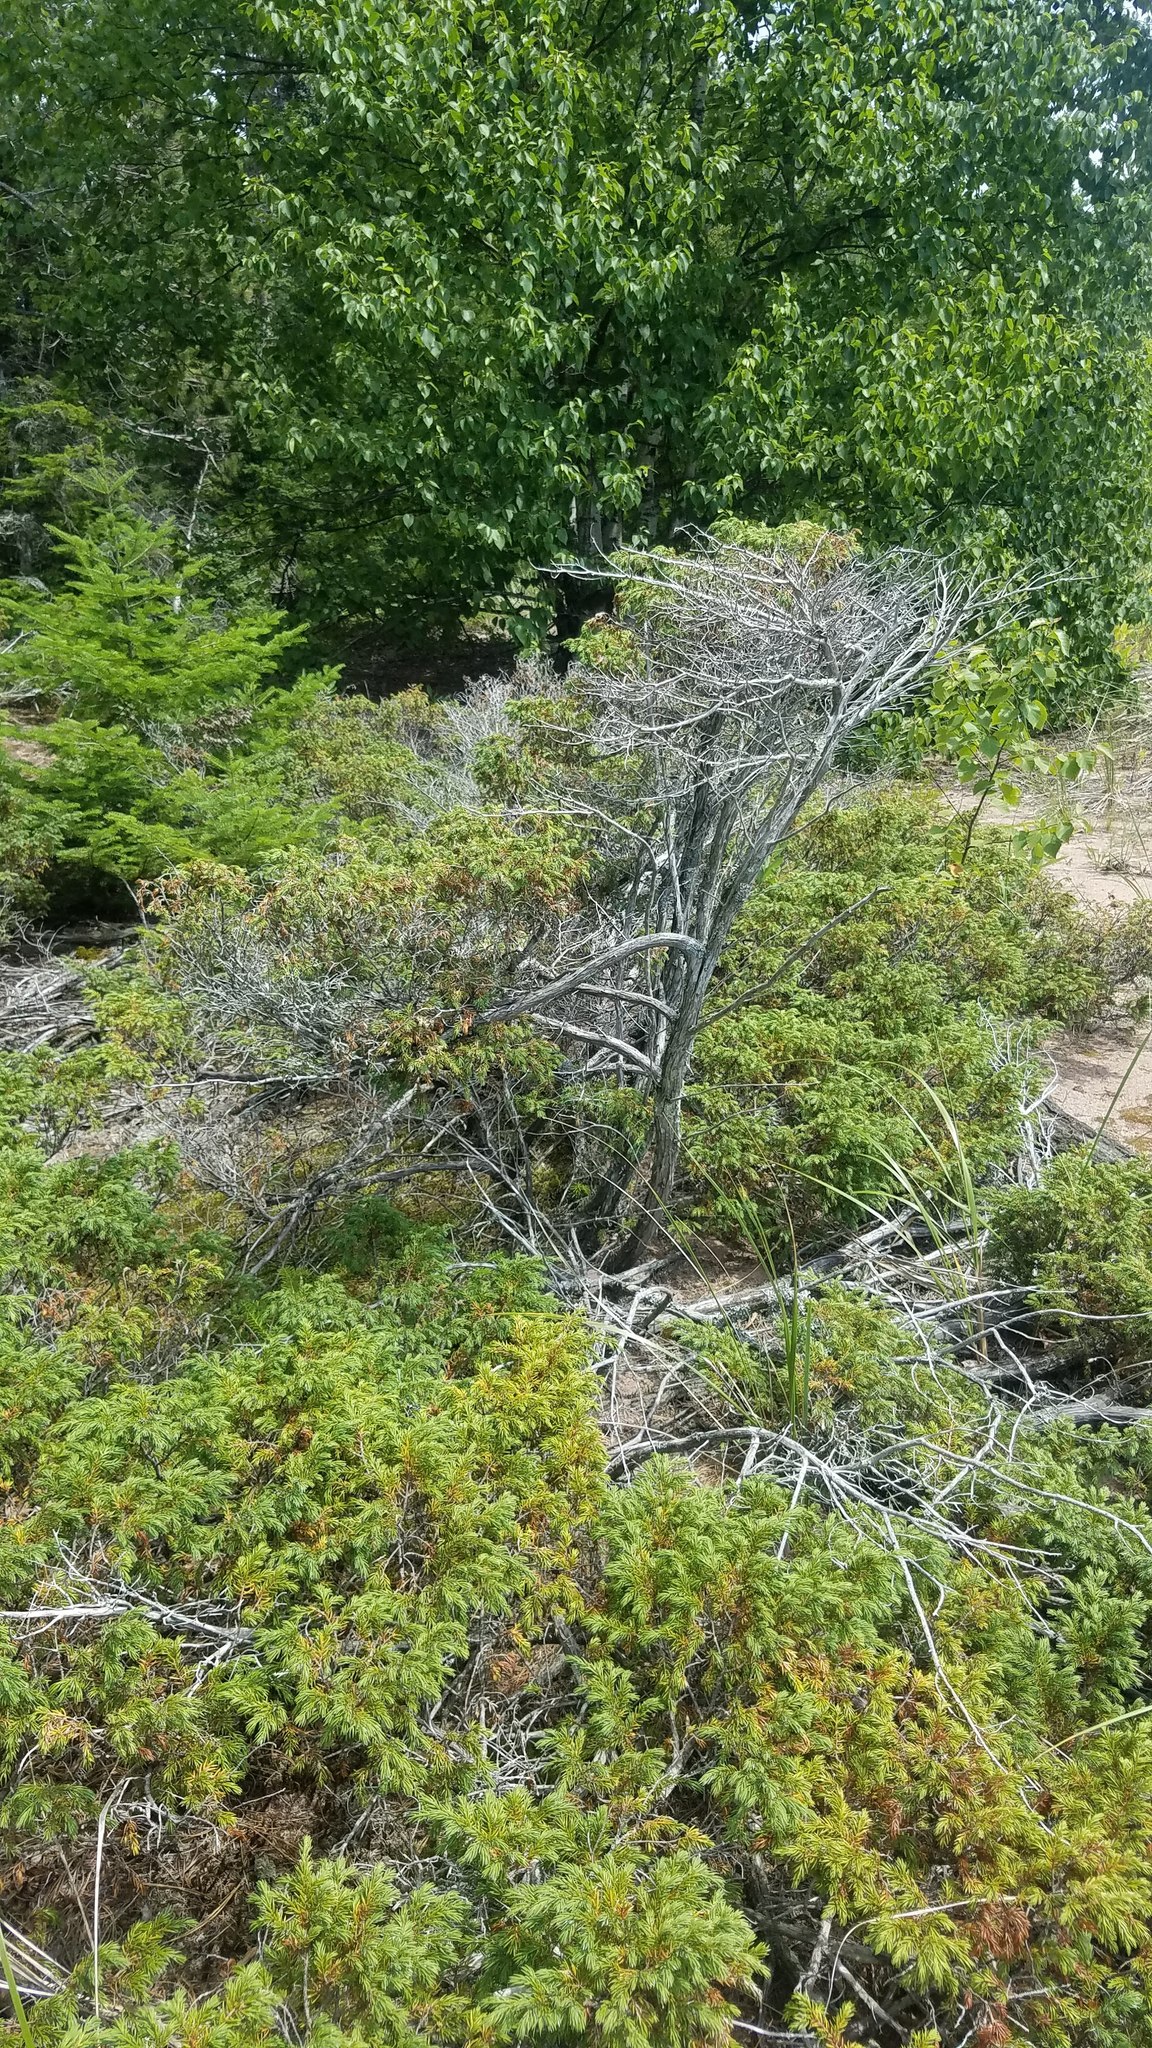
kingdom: Plantae
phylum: Tracheophyta
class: Pinopsida
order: Pinales
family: Cupressaceae
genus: Juniperus
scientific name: Juniperus communis
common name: Common juniper
